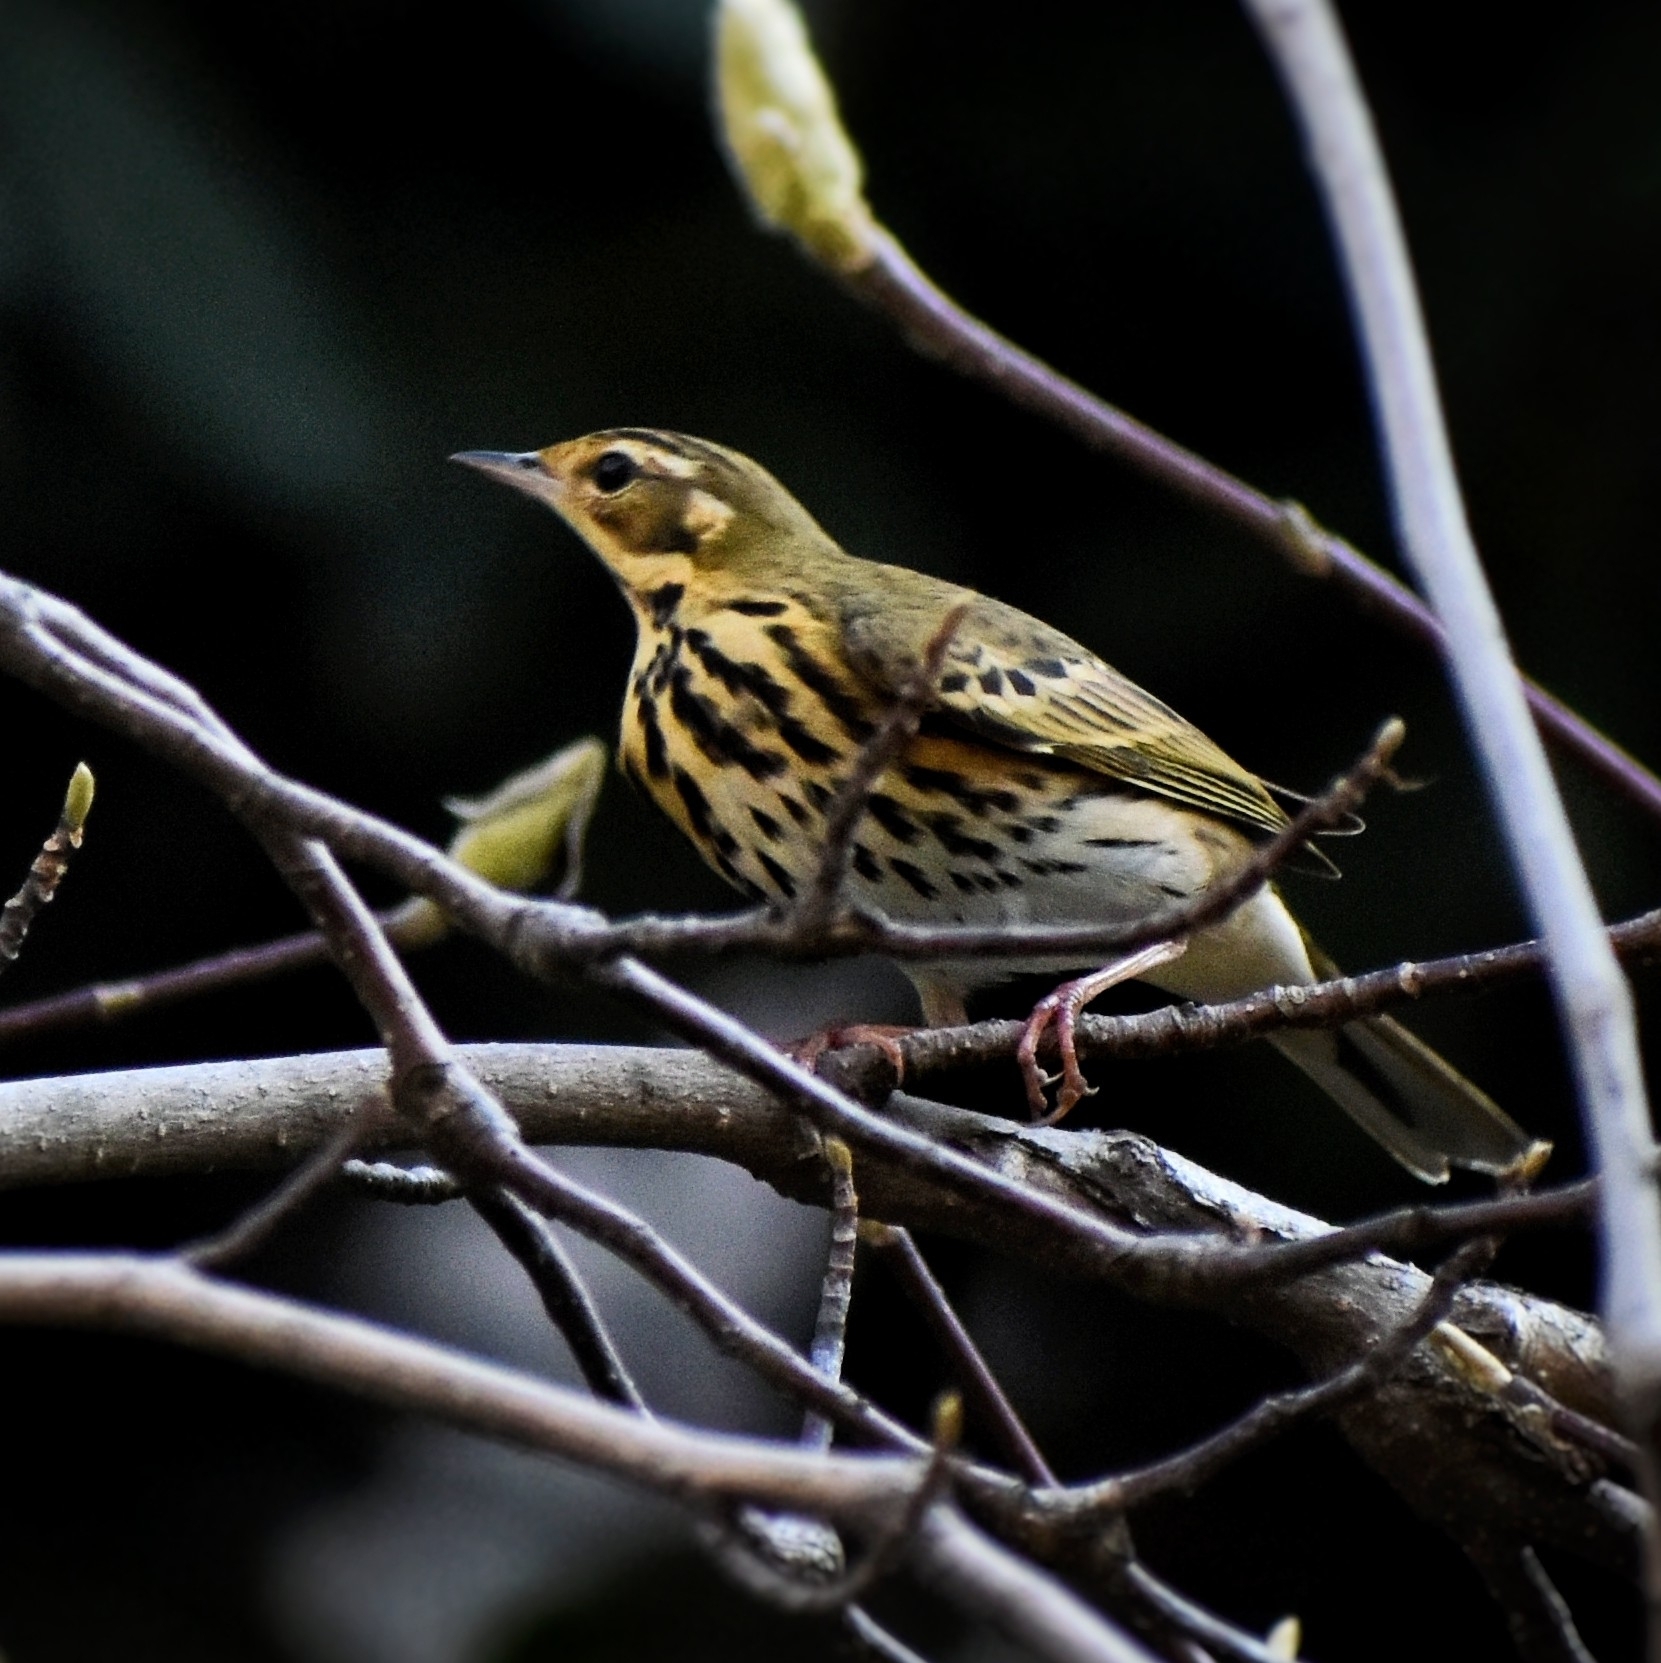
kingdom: Animalia
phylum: Chordata
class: Aves
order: Passeriformes
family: Motacillidae
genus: Anthus
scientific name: Anthus hodgsoni
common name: Olive-backed pipit
